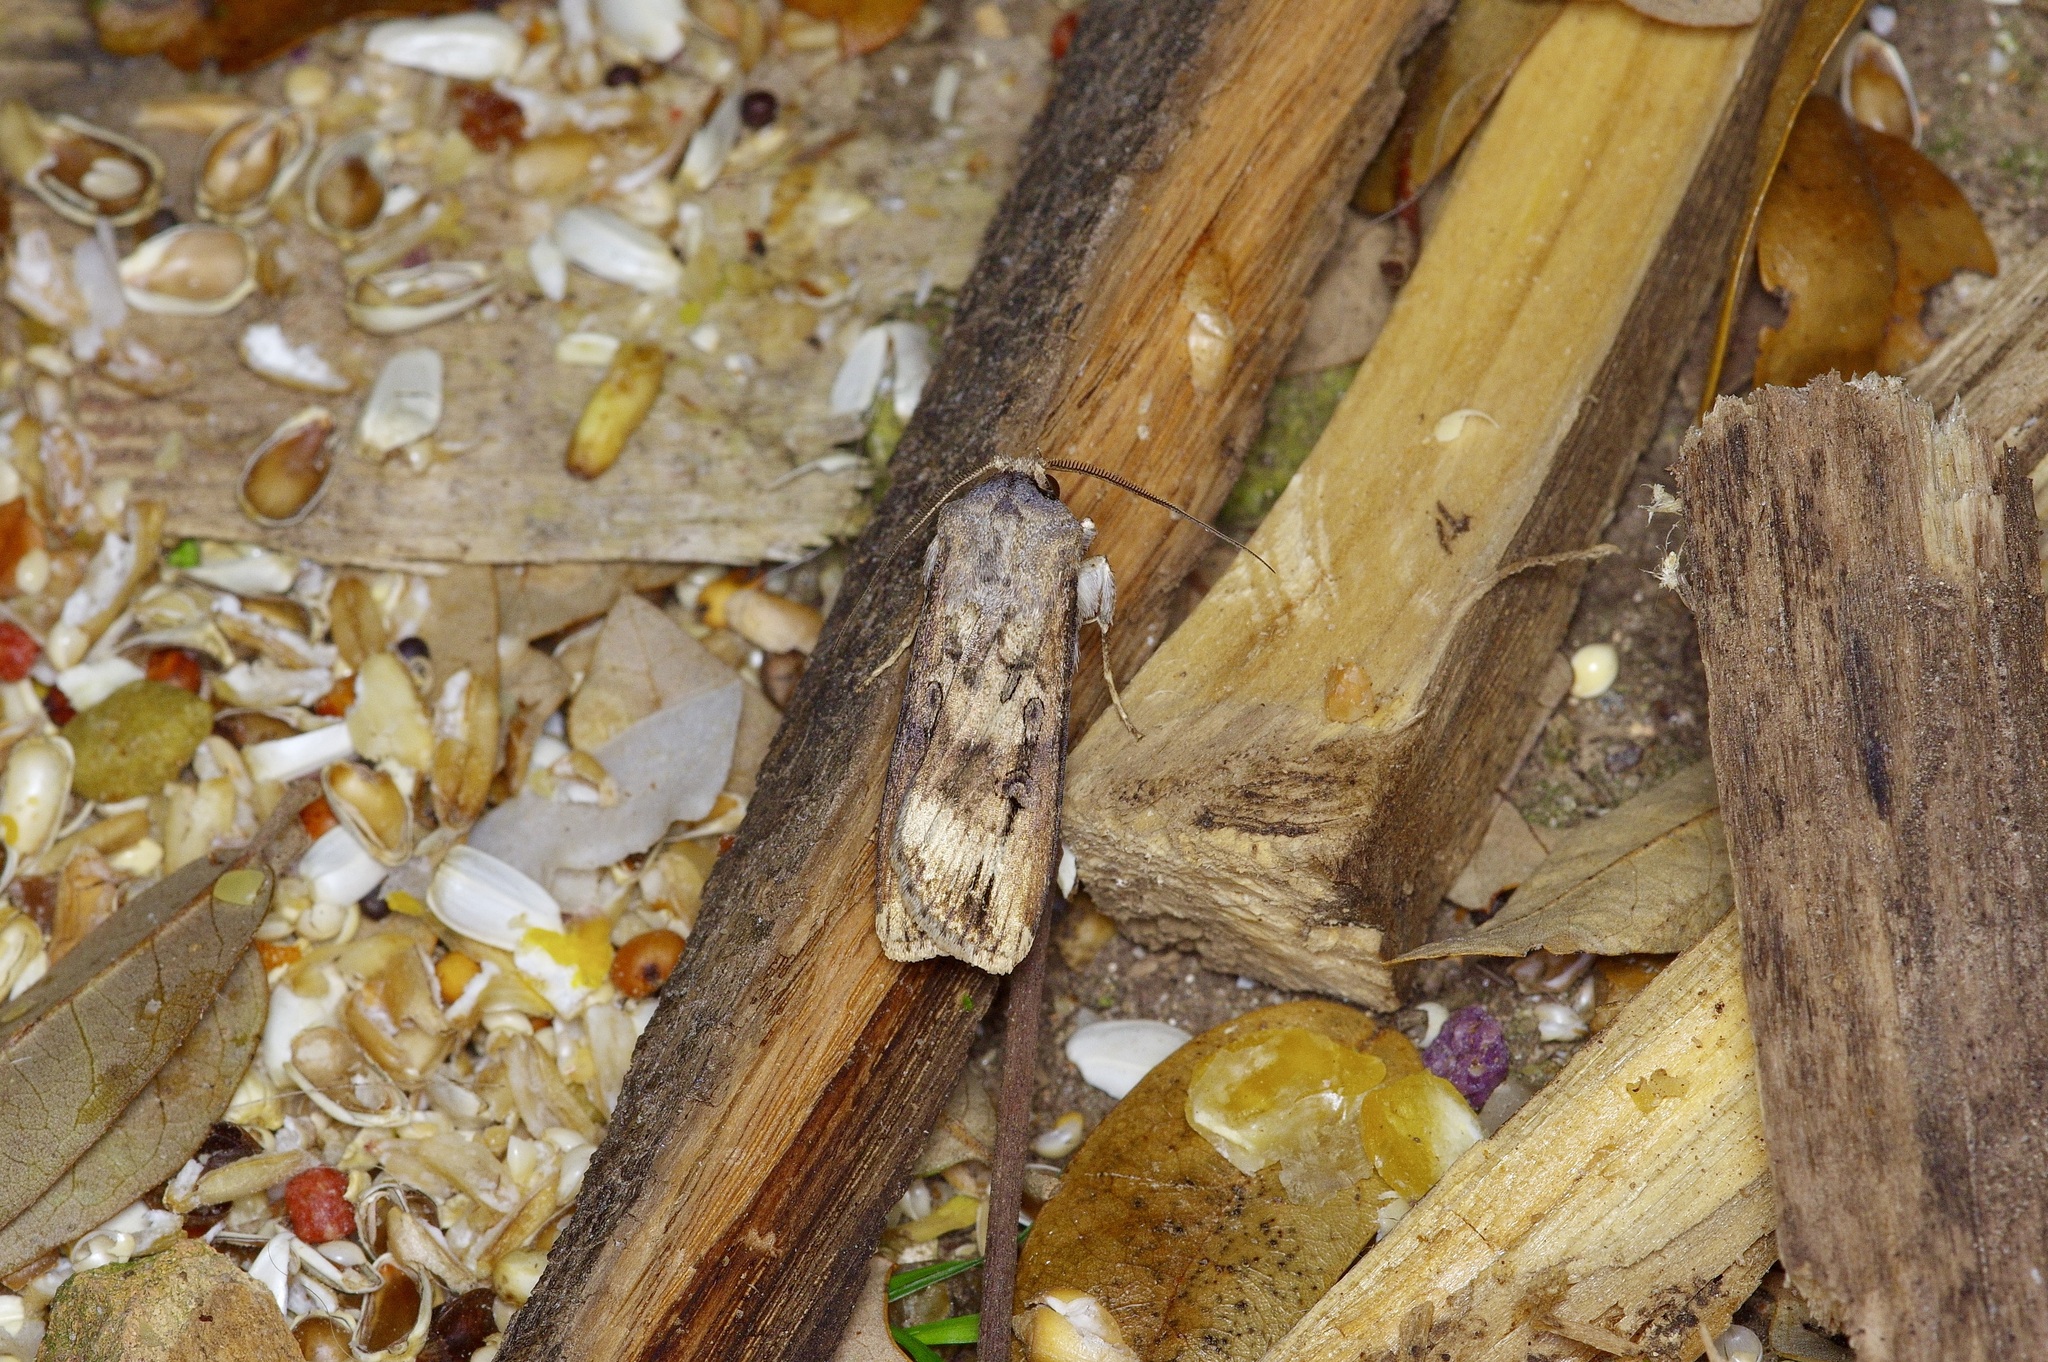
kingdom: Animalia
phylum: Arthropoda
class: Insecta
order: Lepidoptera
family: Noctuidae
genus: Agrotis
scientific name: Agrotis ipsilon
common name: Dark sword-grass
